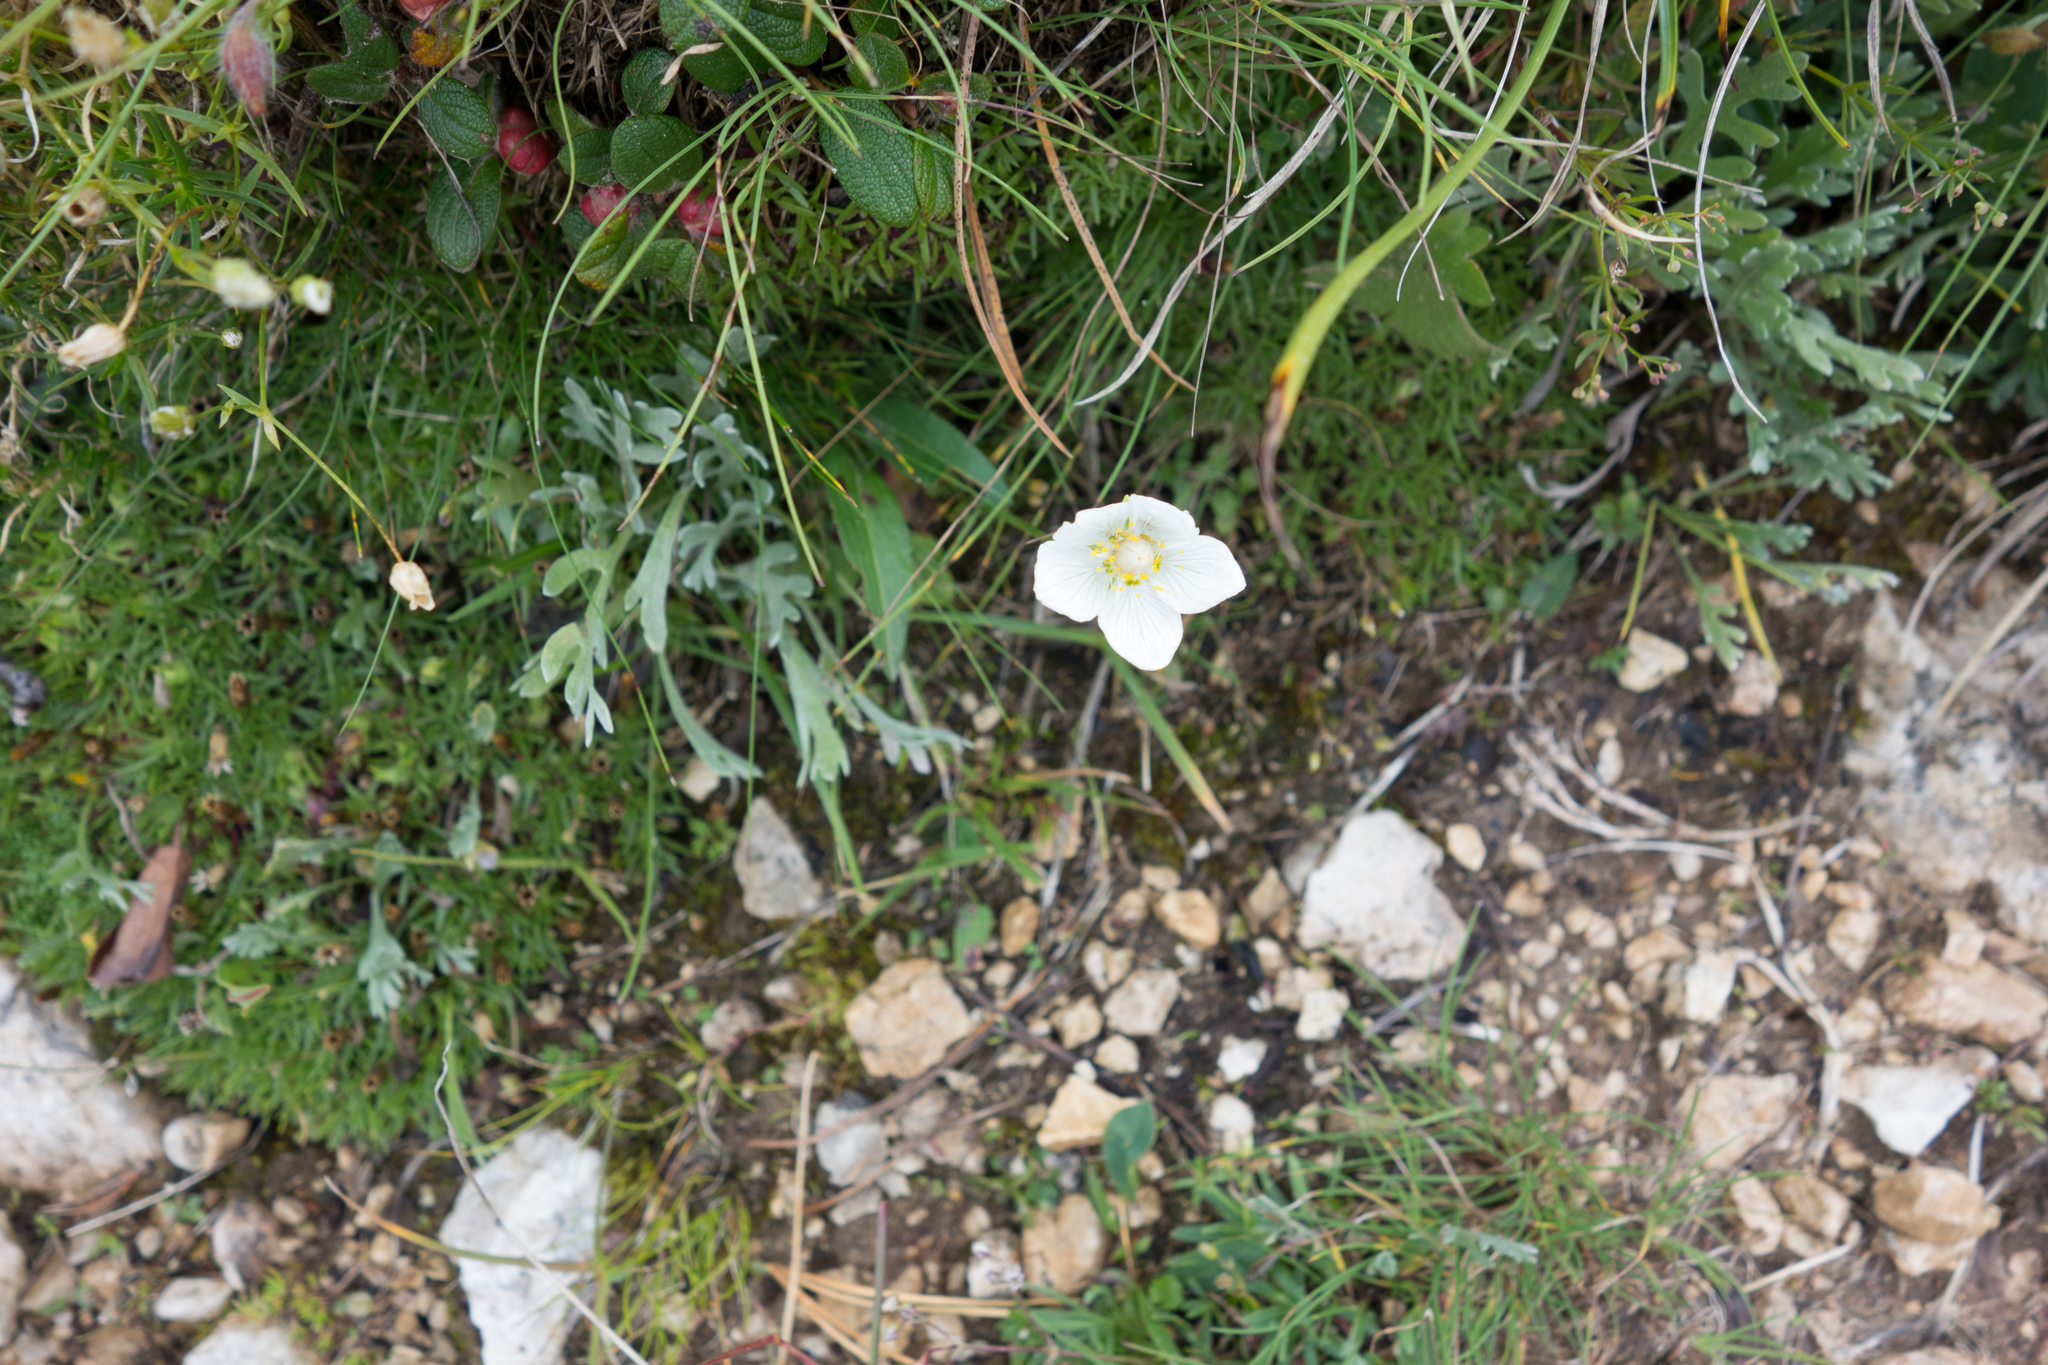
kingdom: Plantae
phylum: Tracheophyta
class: Magnoliopsida
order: Celastrales
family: Parnassiaceae
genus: Parnassia
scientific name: Parnassia palustris
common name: Grass-of-parnassus
